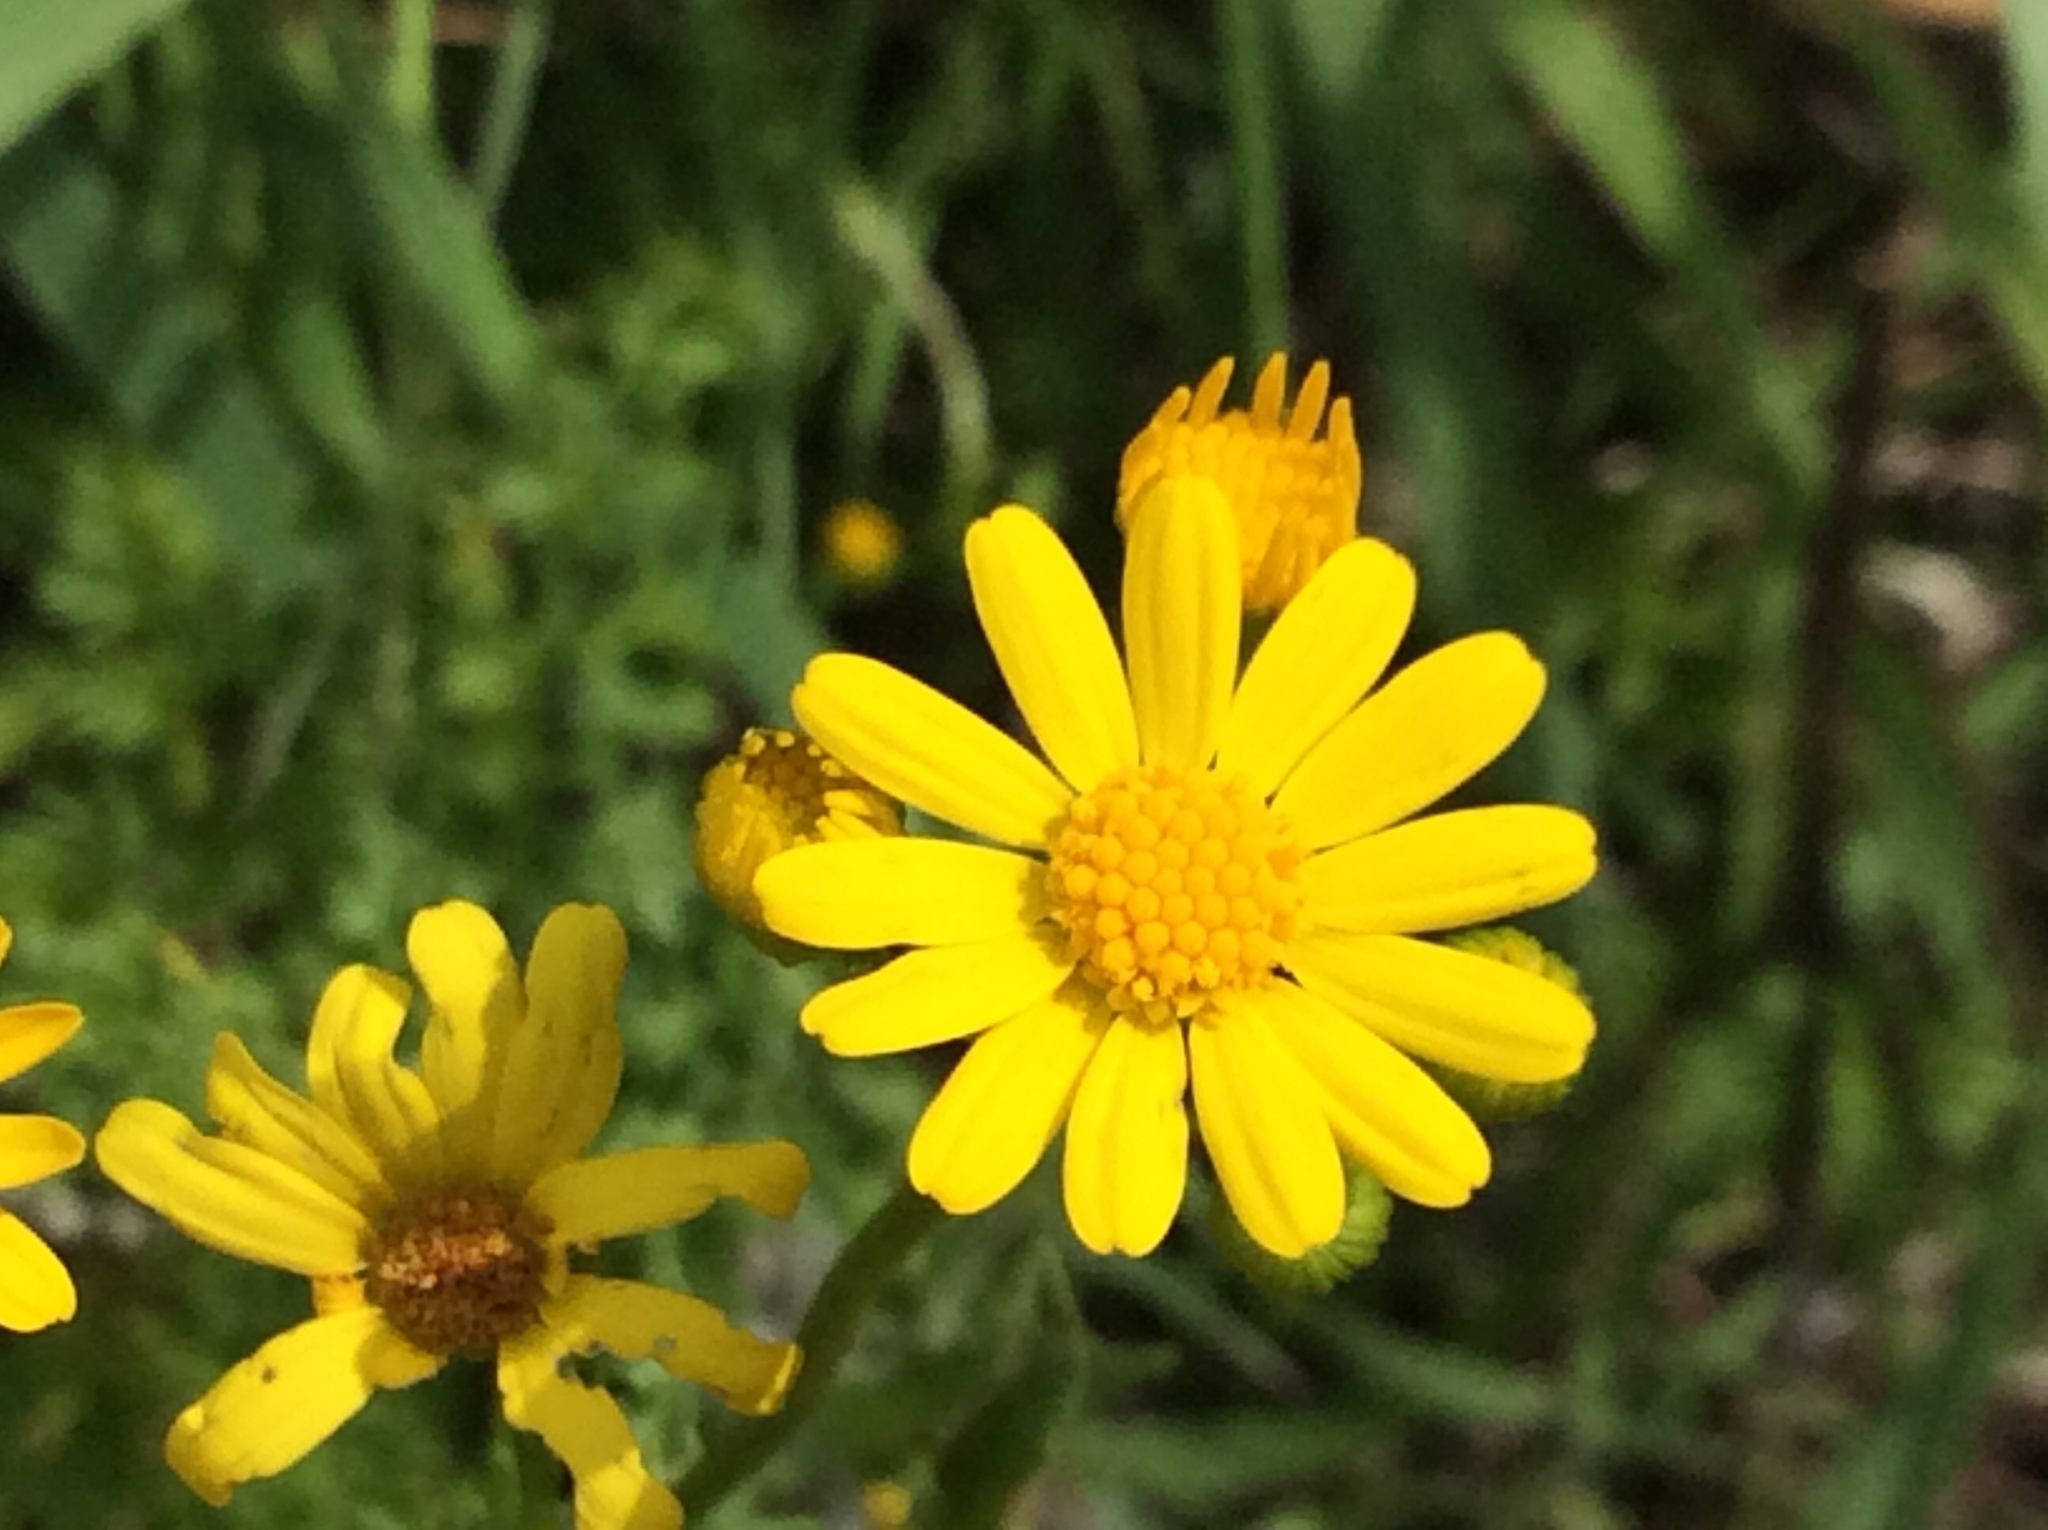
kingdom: Plantae
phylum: Tracheophyta
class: Magnoliopsida
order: Asterales
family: Asteraceae
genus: Packera
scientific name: Packera tampicana
